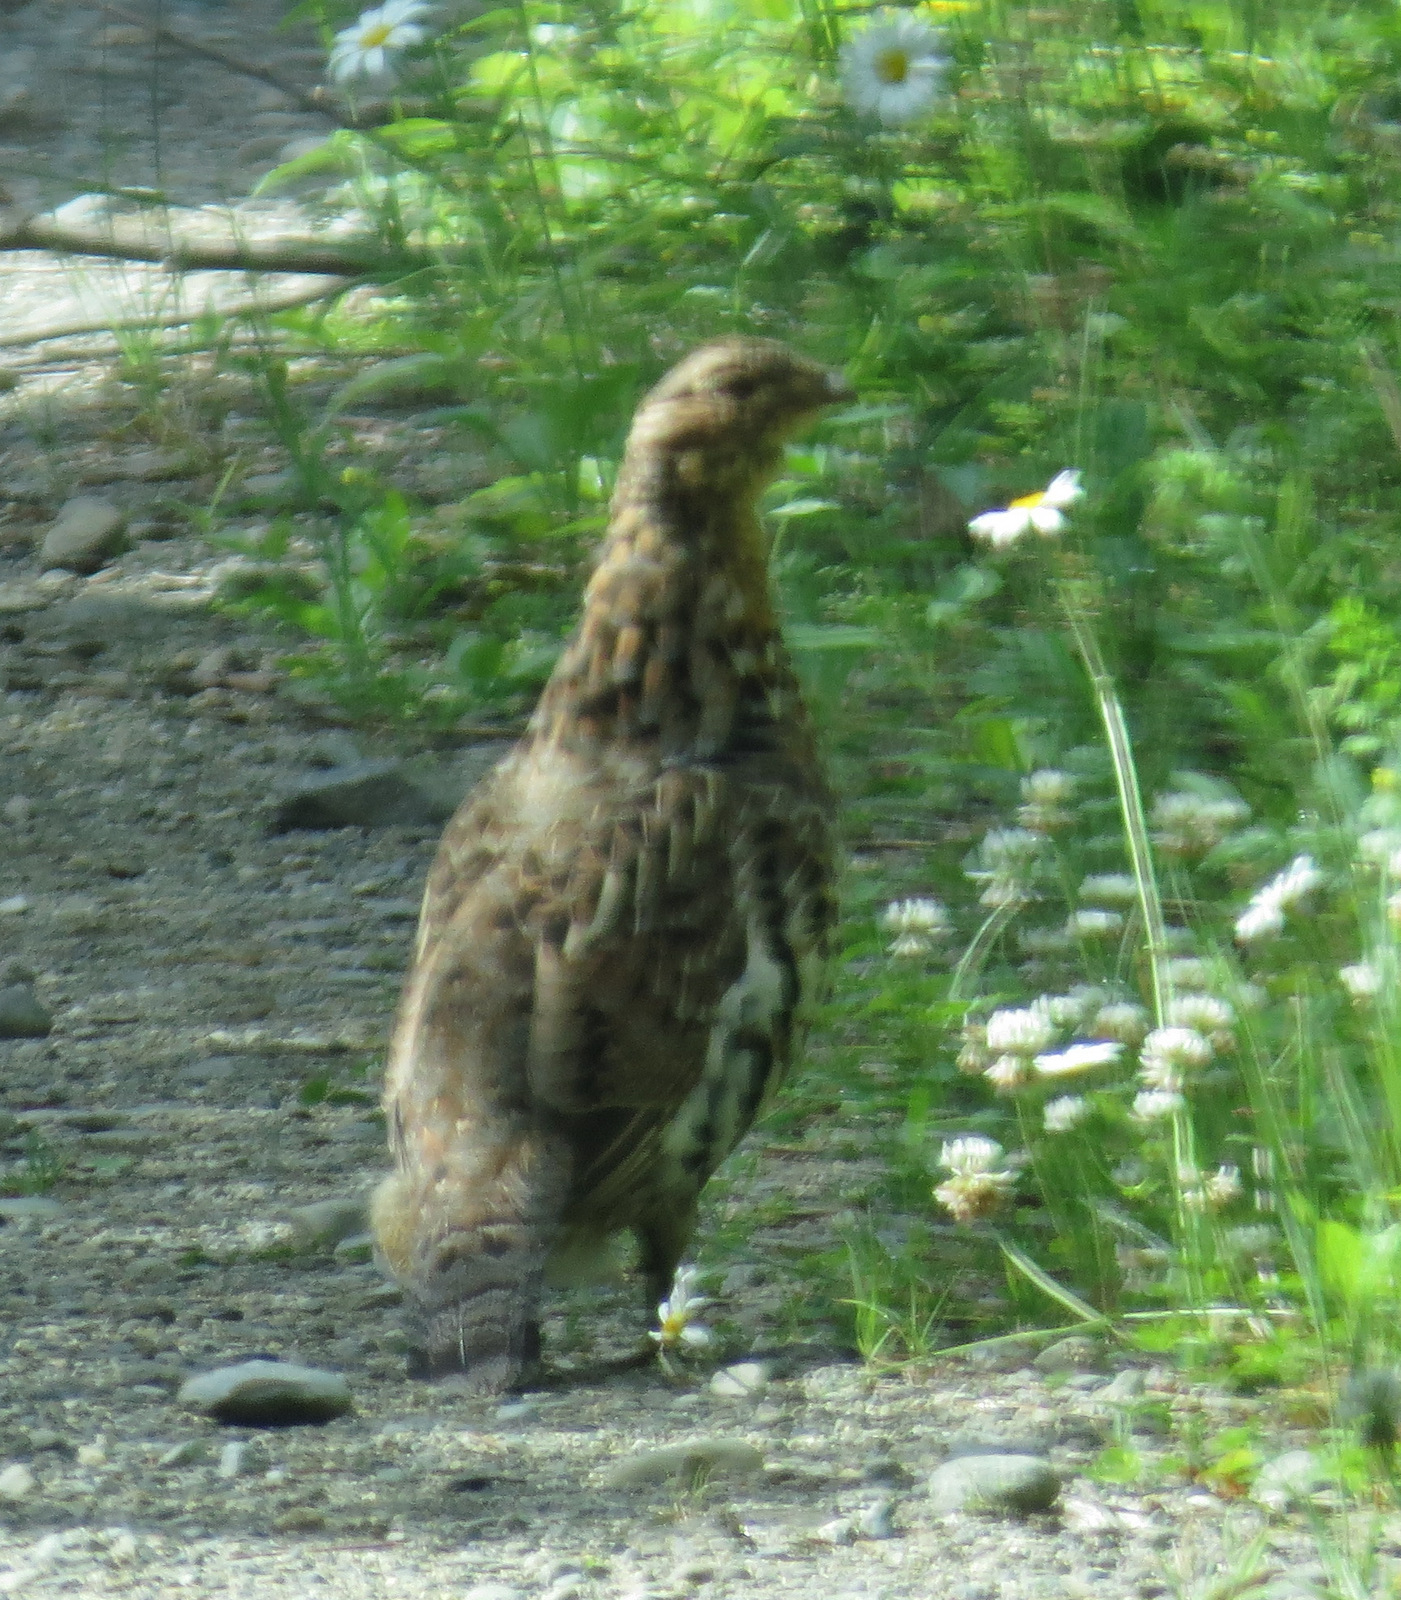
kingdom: Animalia
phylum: Chordata
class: Aves
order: Galliformes
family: Phasianidae
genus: Bonasa
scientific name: Bonasa umbellus
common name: Ruffed grouse
